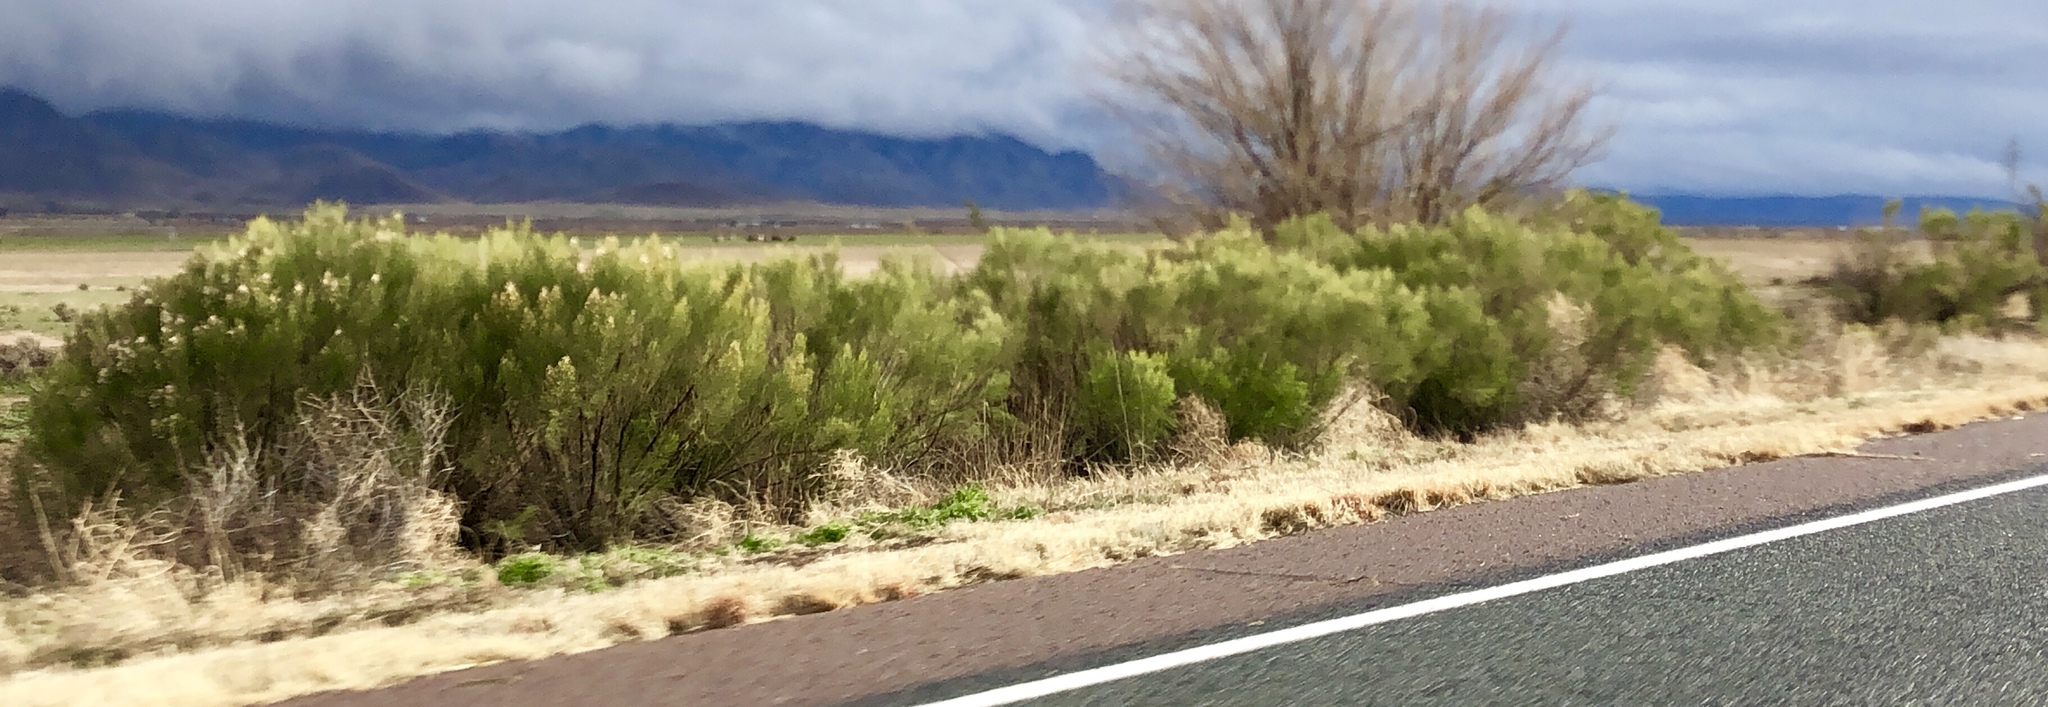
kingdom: Plantae
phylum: Tracheophyta
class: Magnoliopsida
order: Asterales
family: Asteraceae
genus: Baccharis
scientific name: Baccharis sarothroides
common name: Desert-broom
